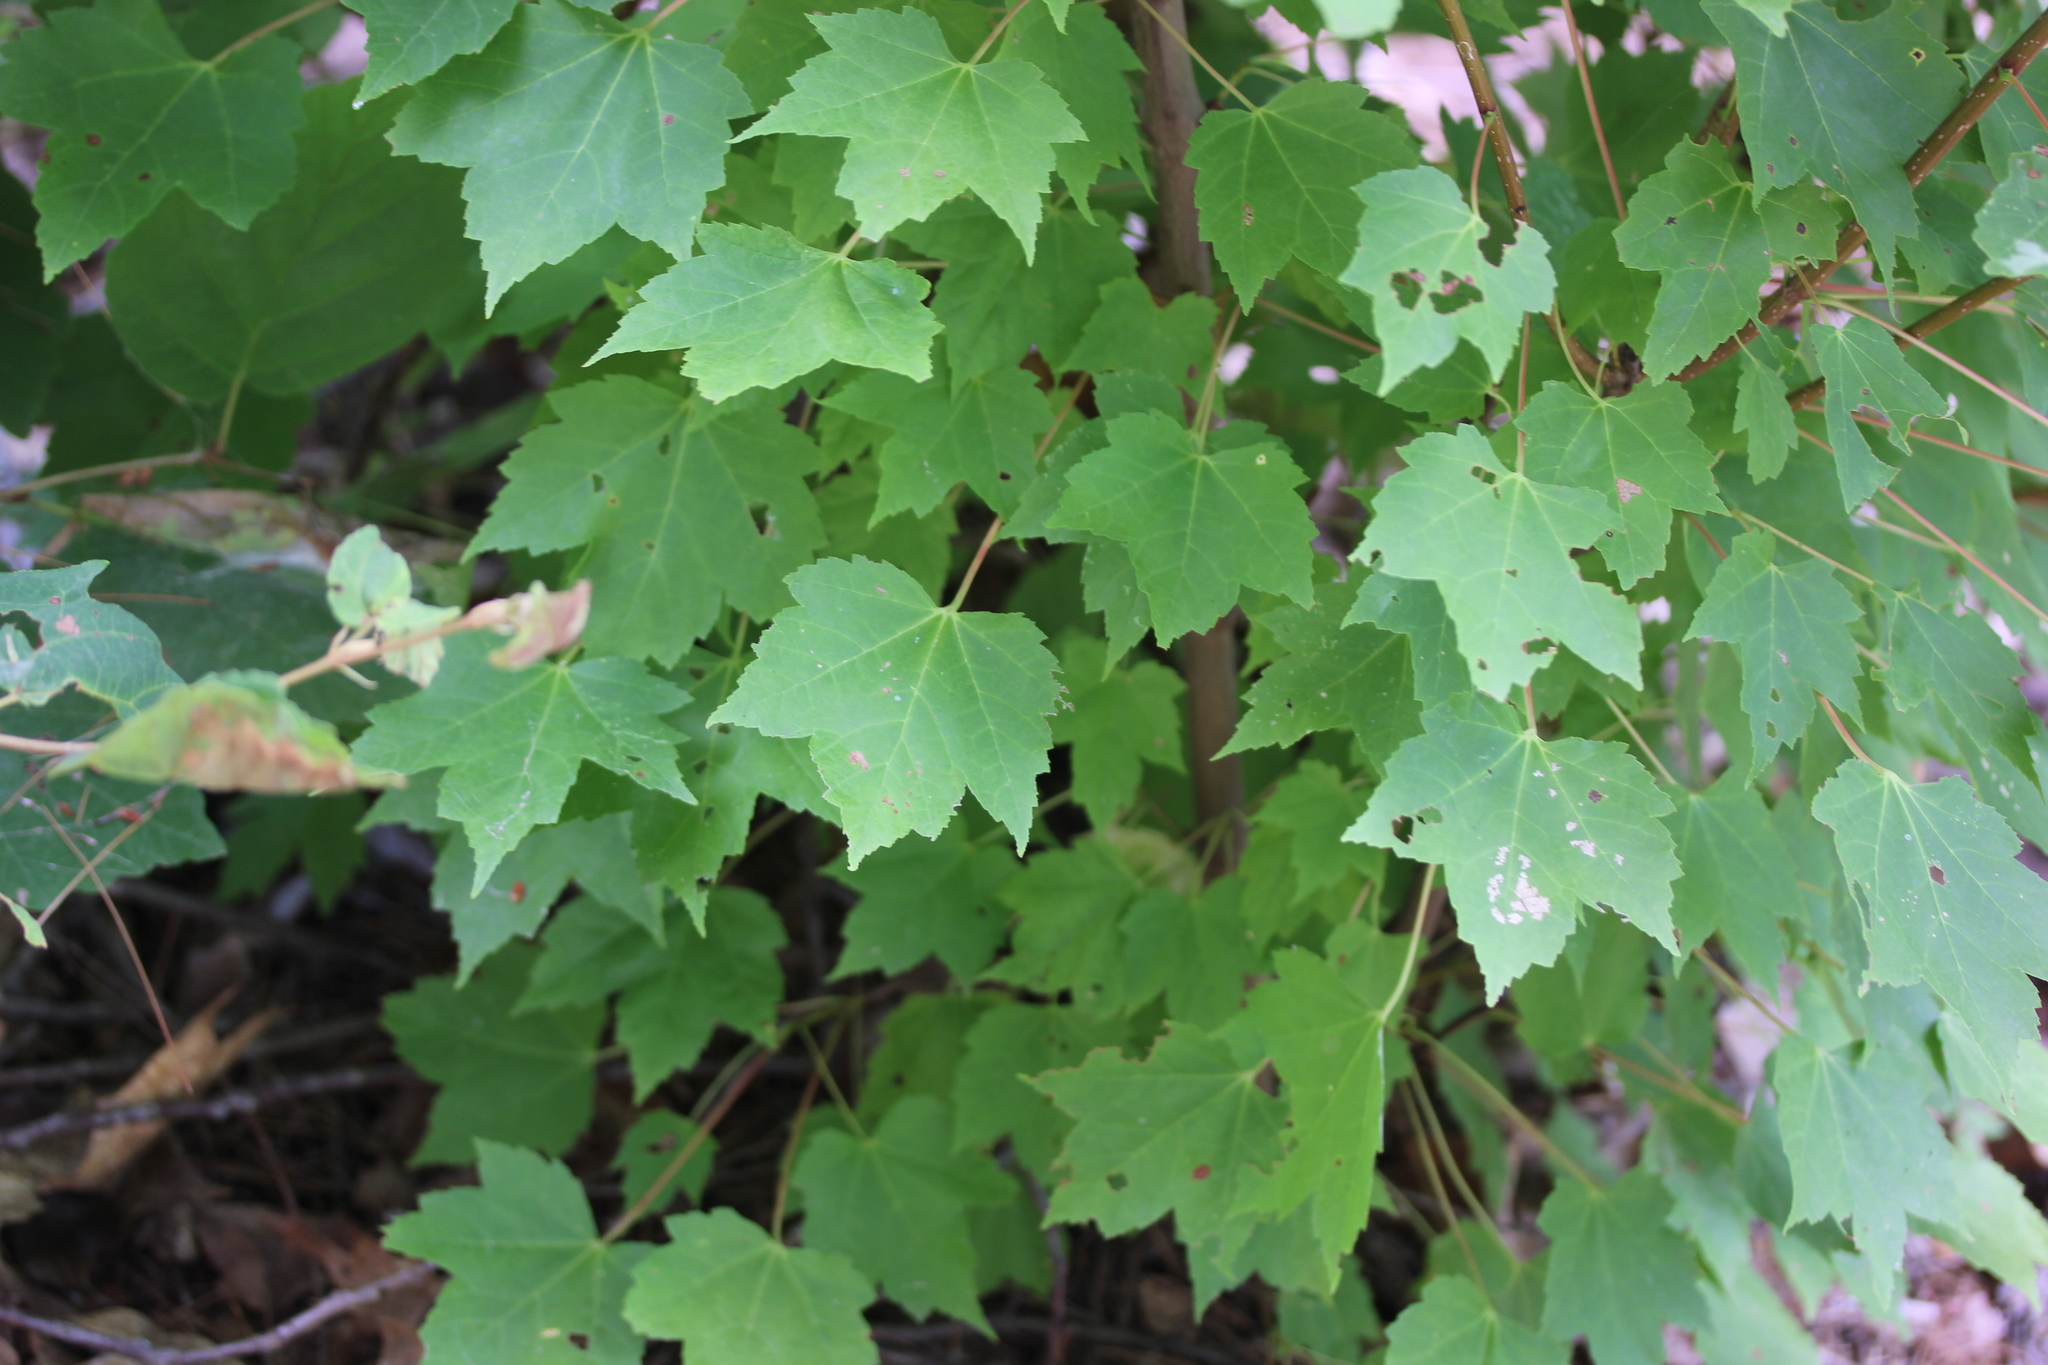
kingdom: Plantae
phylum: Tracheophyta
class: Magnoliopsida
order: Sapindales
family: Sapindaceae
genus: Acer
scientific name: Acer rubrum
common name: Red maple
